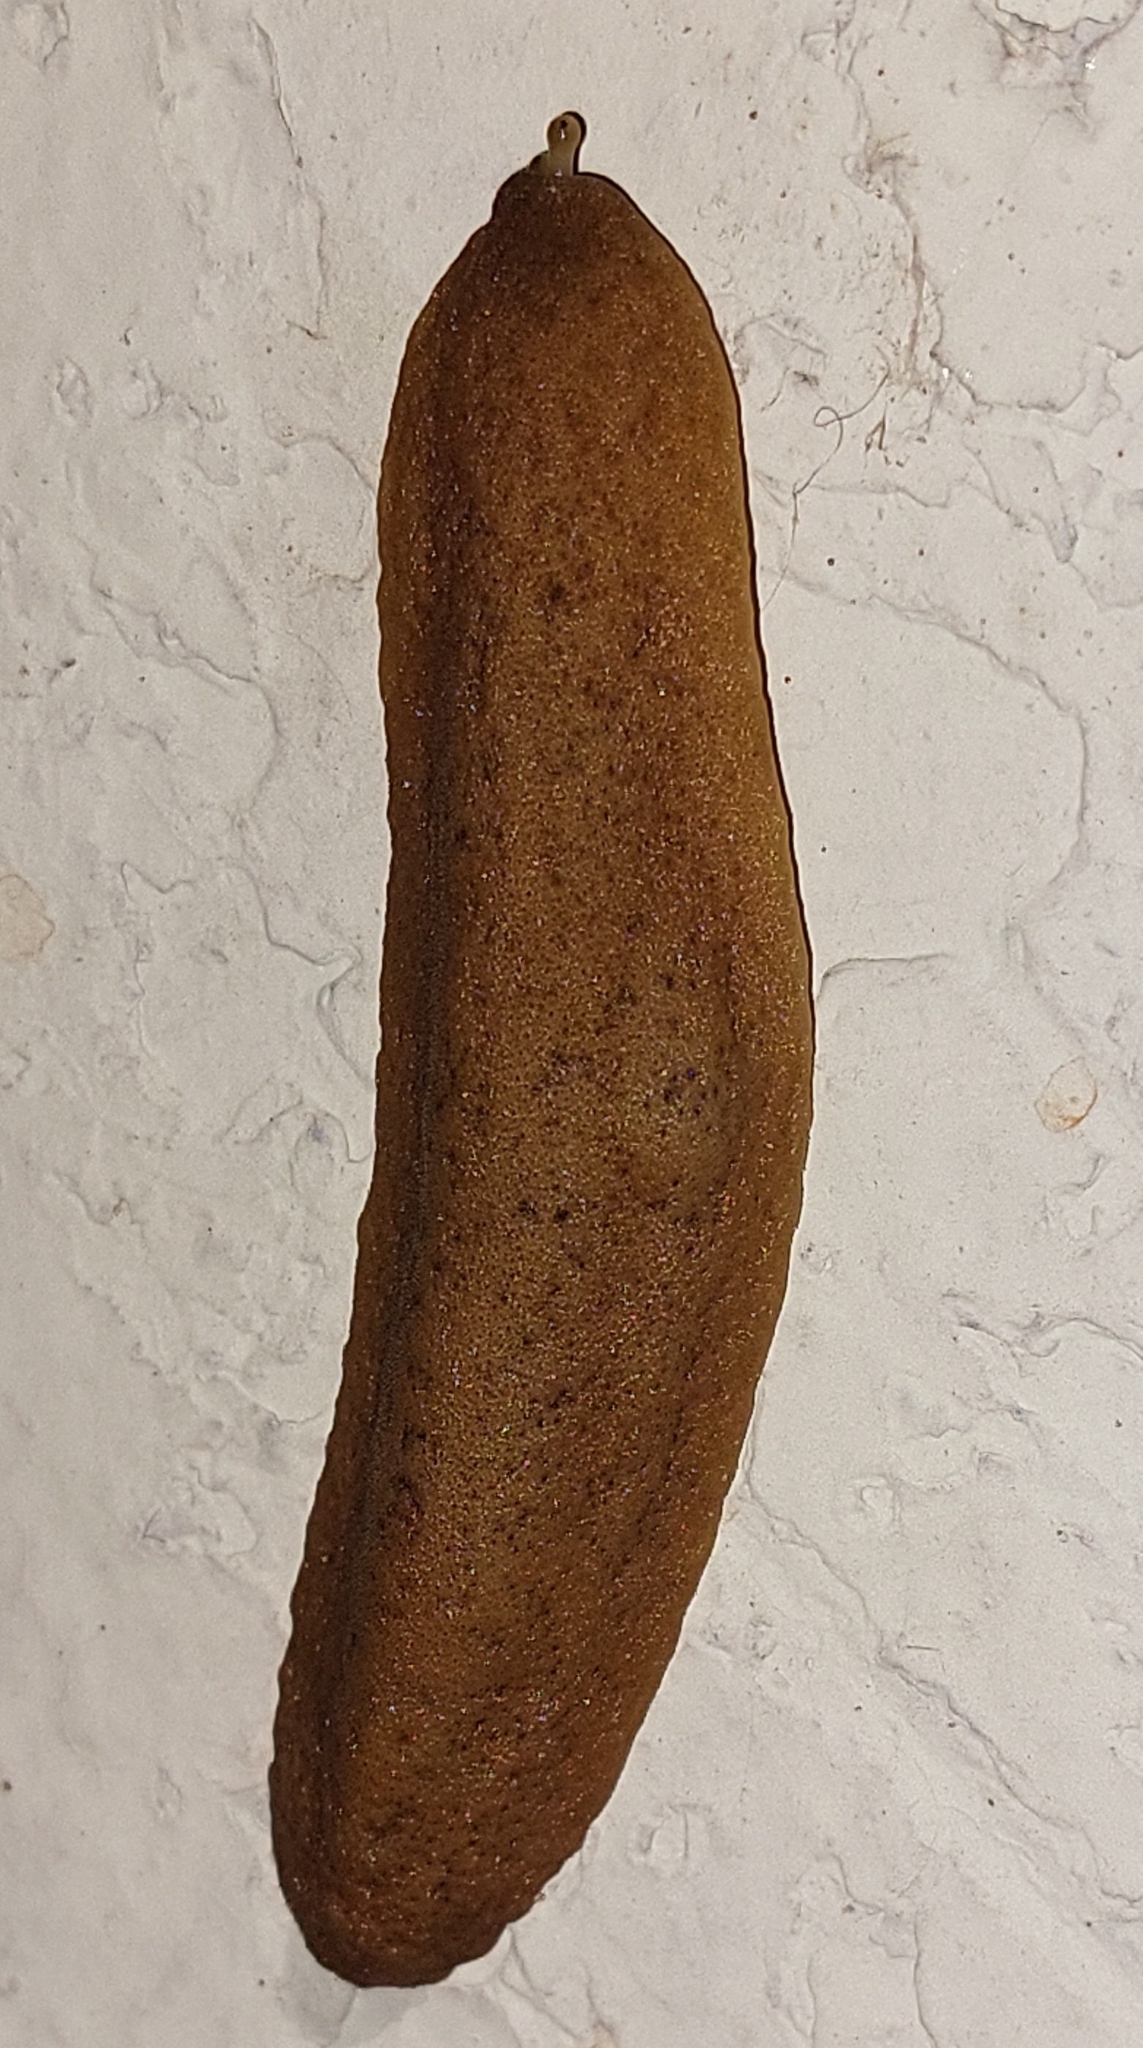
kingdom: Animalia
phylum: Mollusca
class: Gastropoda
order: Systellommatophora
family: Veronicellidae
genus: Sarasinula
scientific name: Sarasinula plebeia
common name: Caribbean leatherleaf
